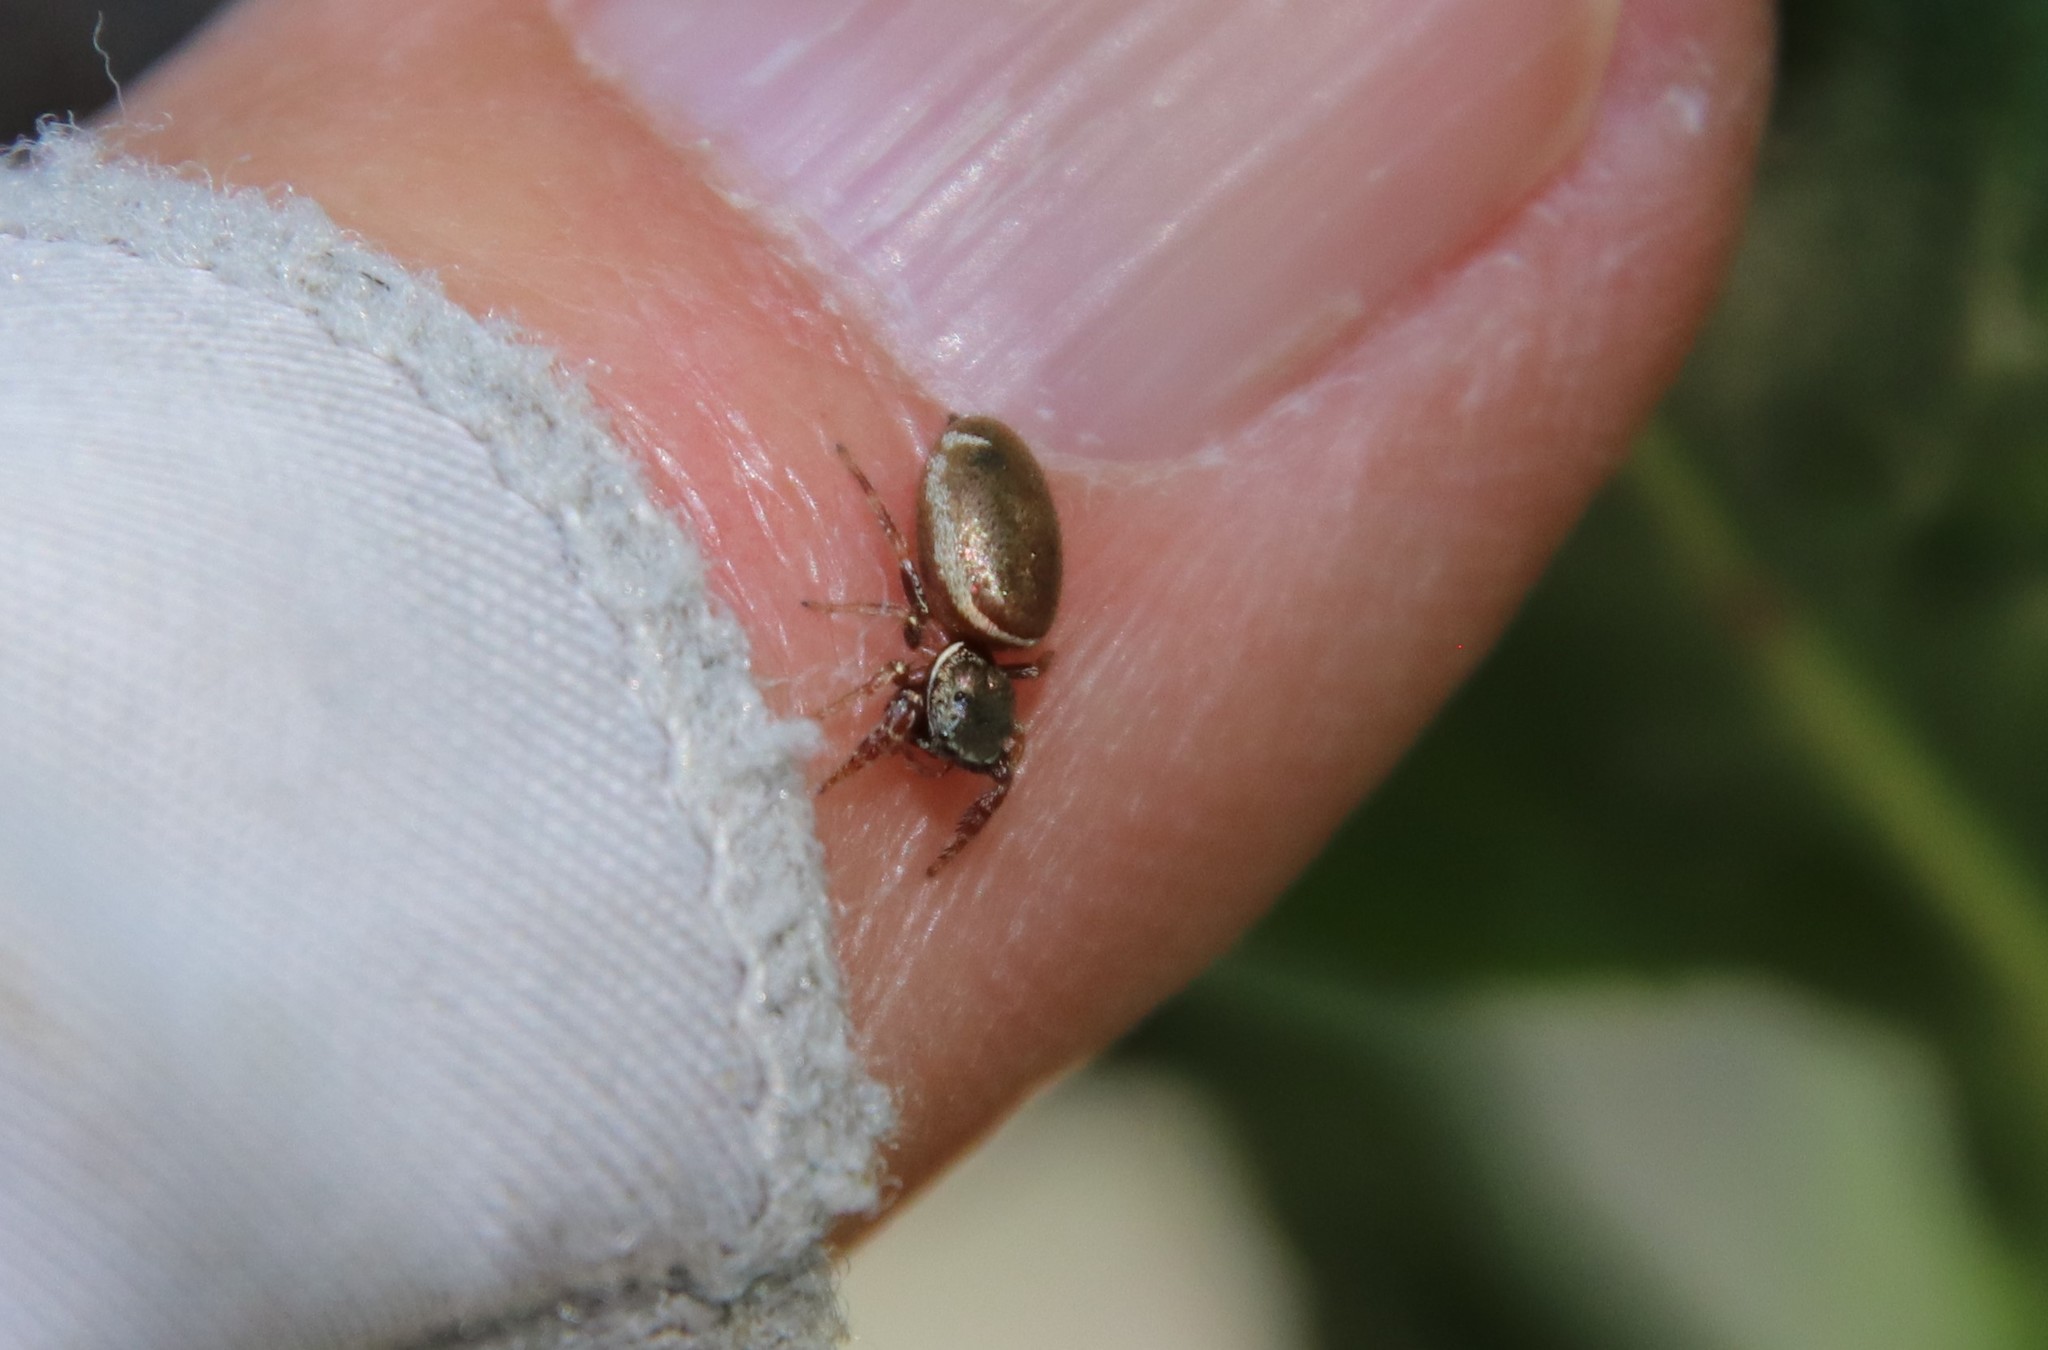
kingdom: Animalia
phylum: Arthropoda
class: Arachnida
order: Araneae
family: Salticidae
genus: Sassacus
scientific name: Sassacus vitis
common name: Jumping spiders
